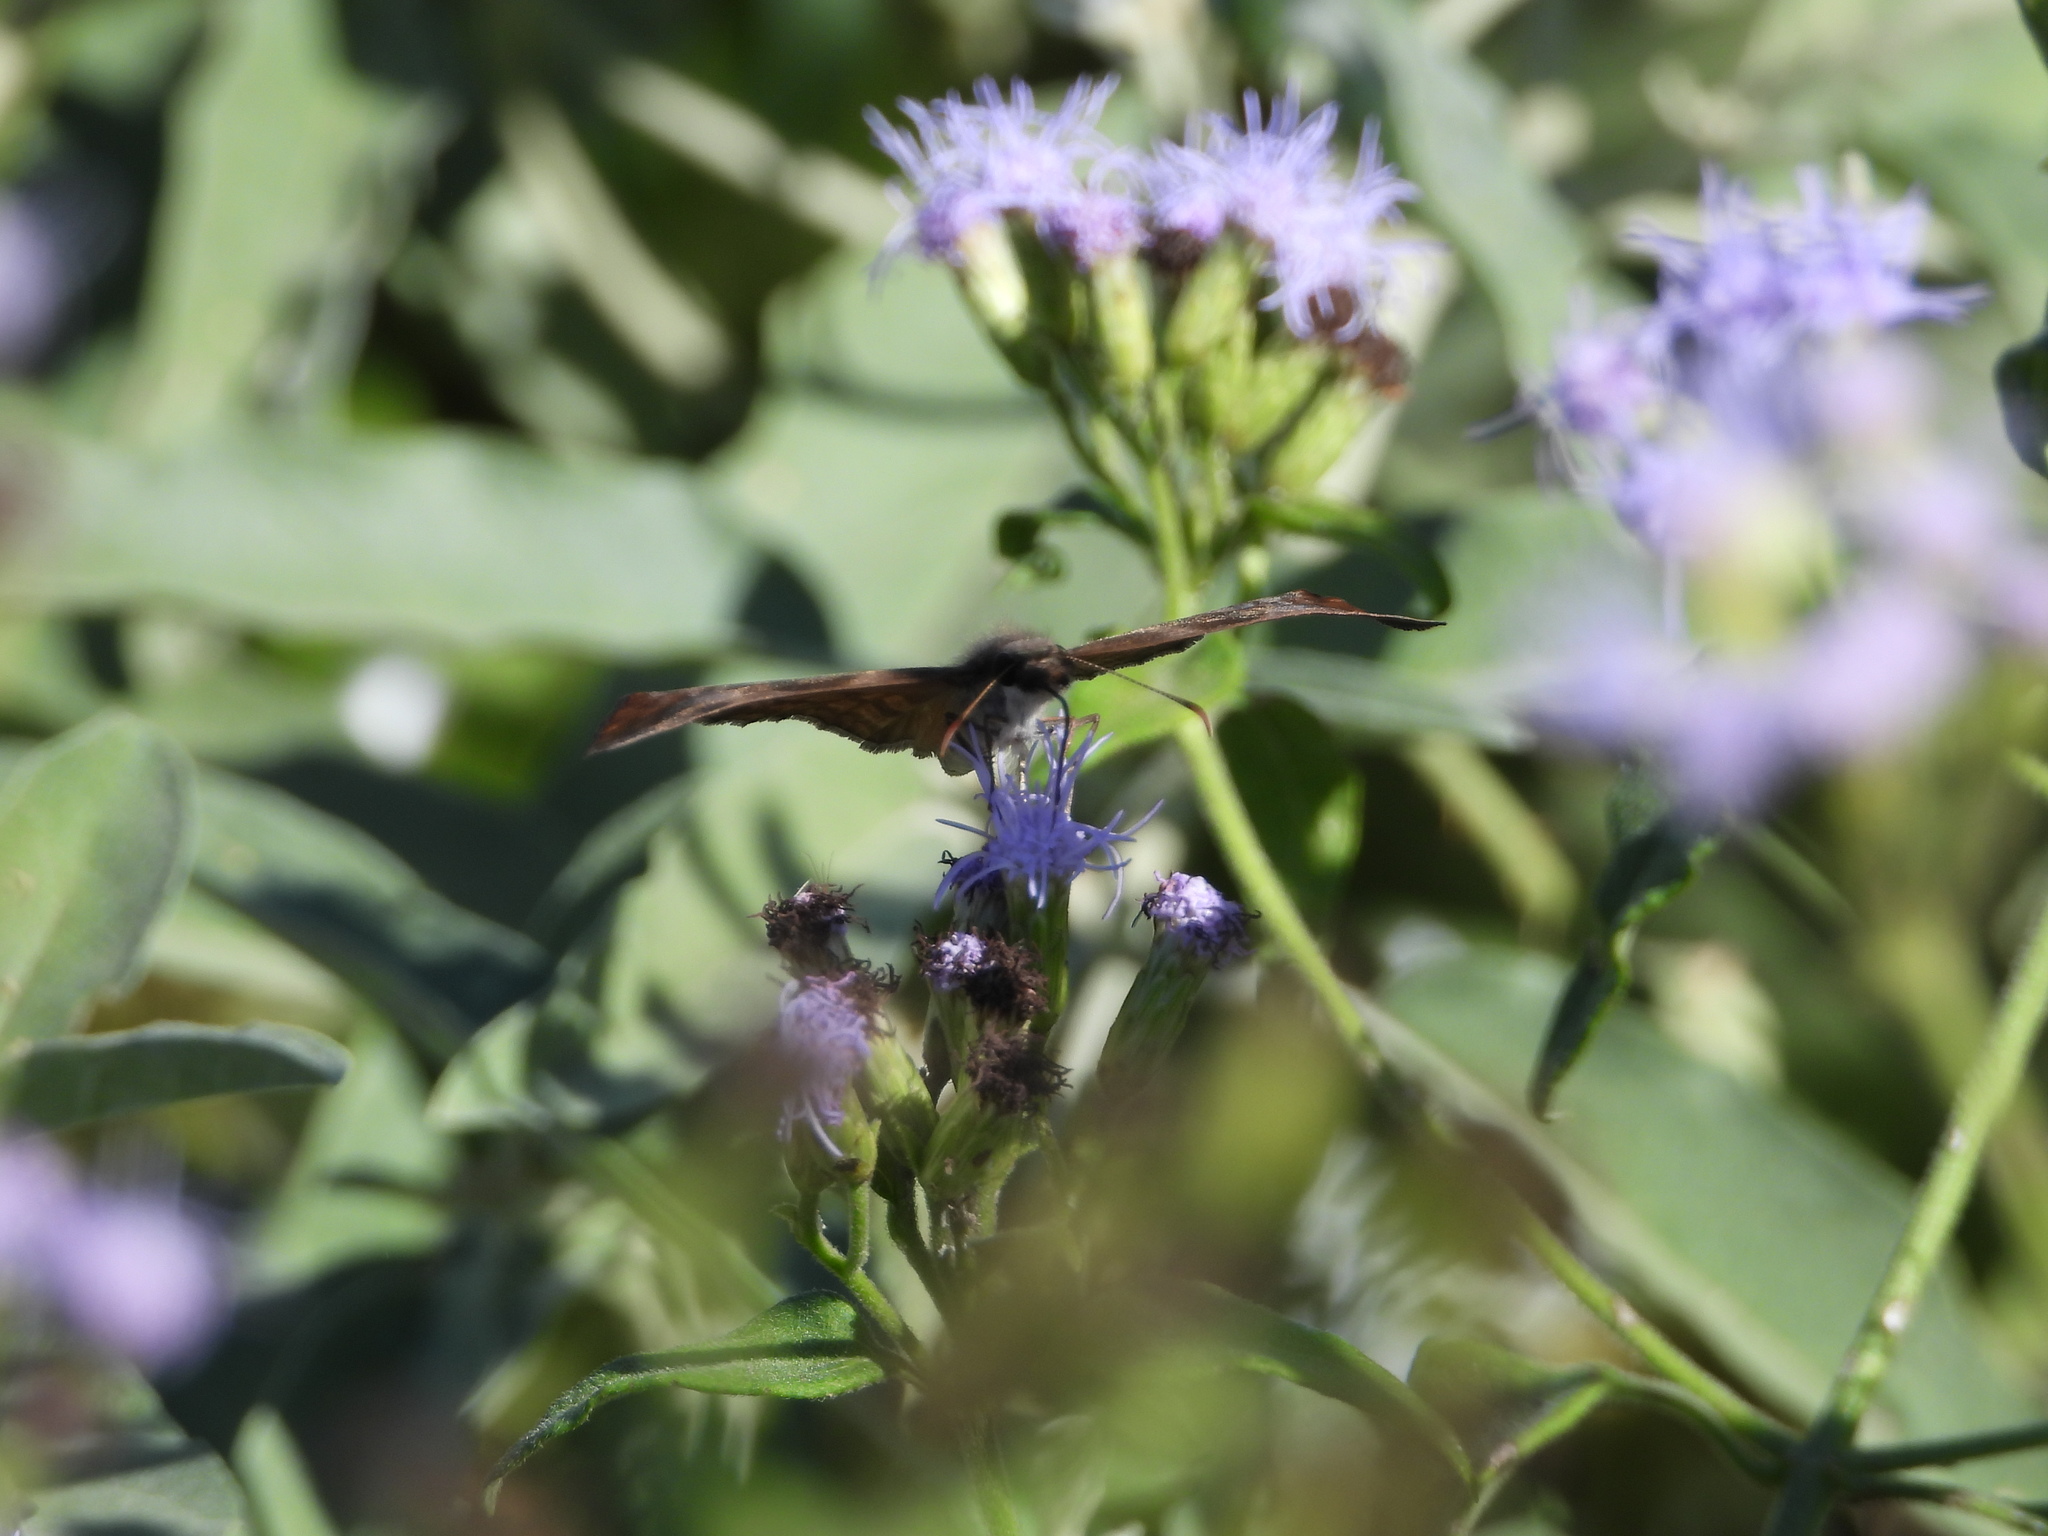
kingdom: Animalia
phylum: Arthropoda
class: Insecta
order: Lepidoptera
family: Hesperiidae
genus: Timochares
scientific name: Timochares ruptifasciata
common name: Brown-banded skipper
